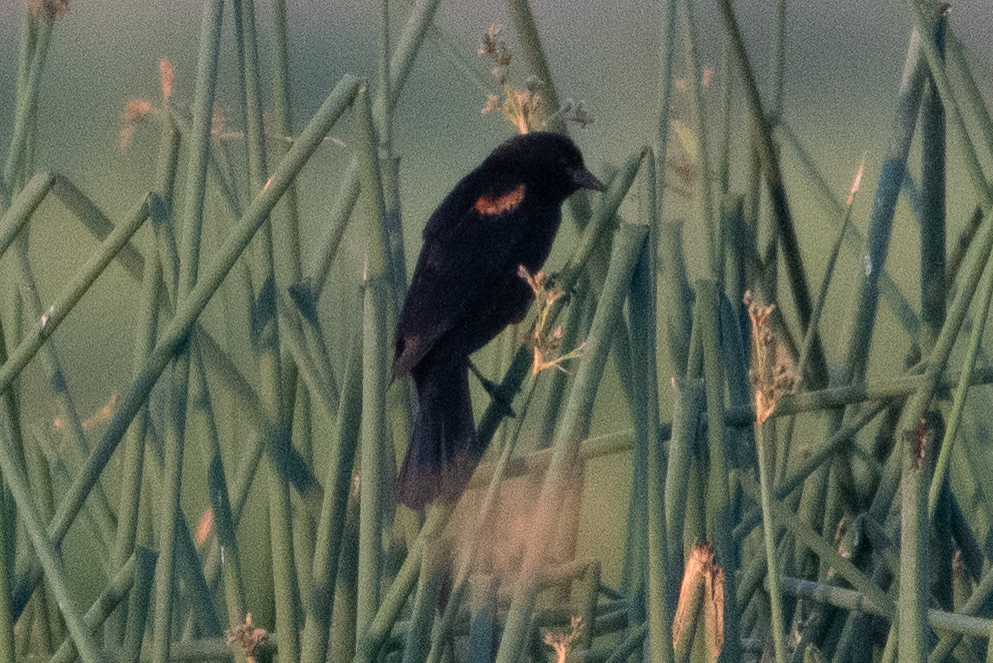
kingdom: Animalia
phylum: Chordata
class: Aves
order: Passeriformes
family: Icteridae
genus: Agelaius
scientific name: Agelaius phoeniceus
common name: Red-winged blackbird
